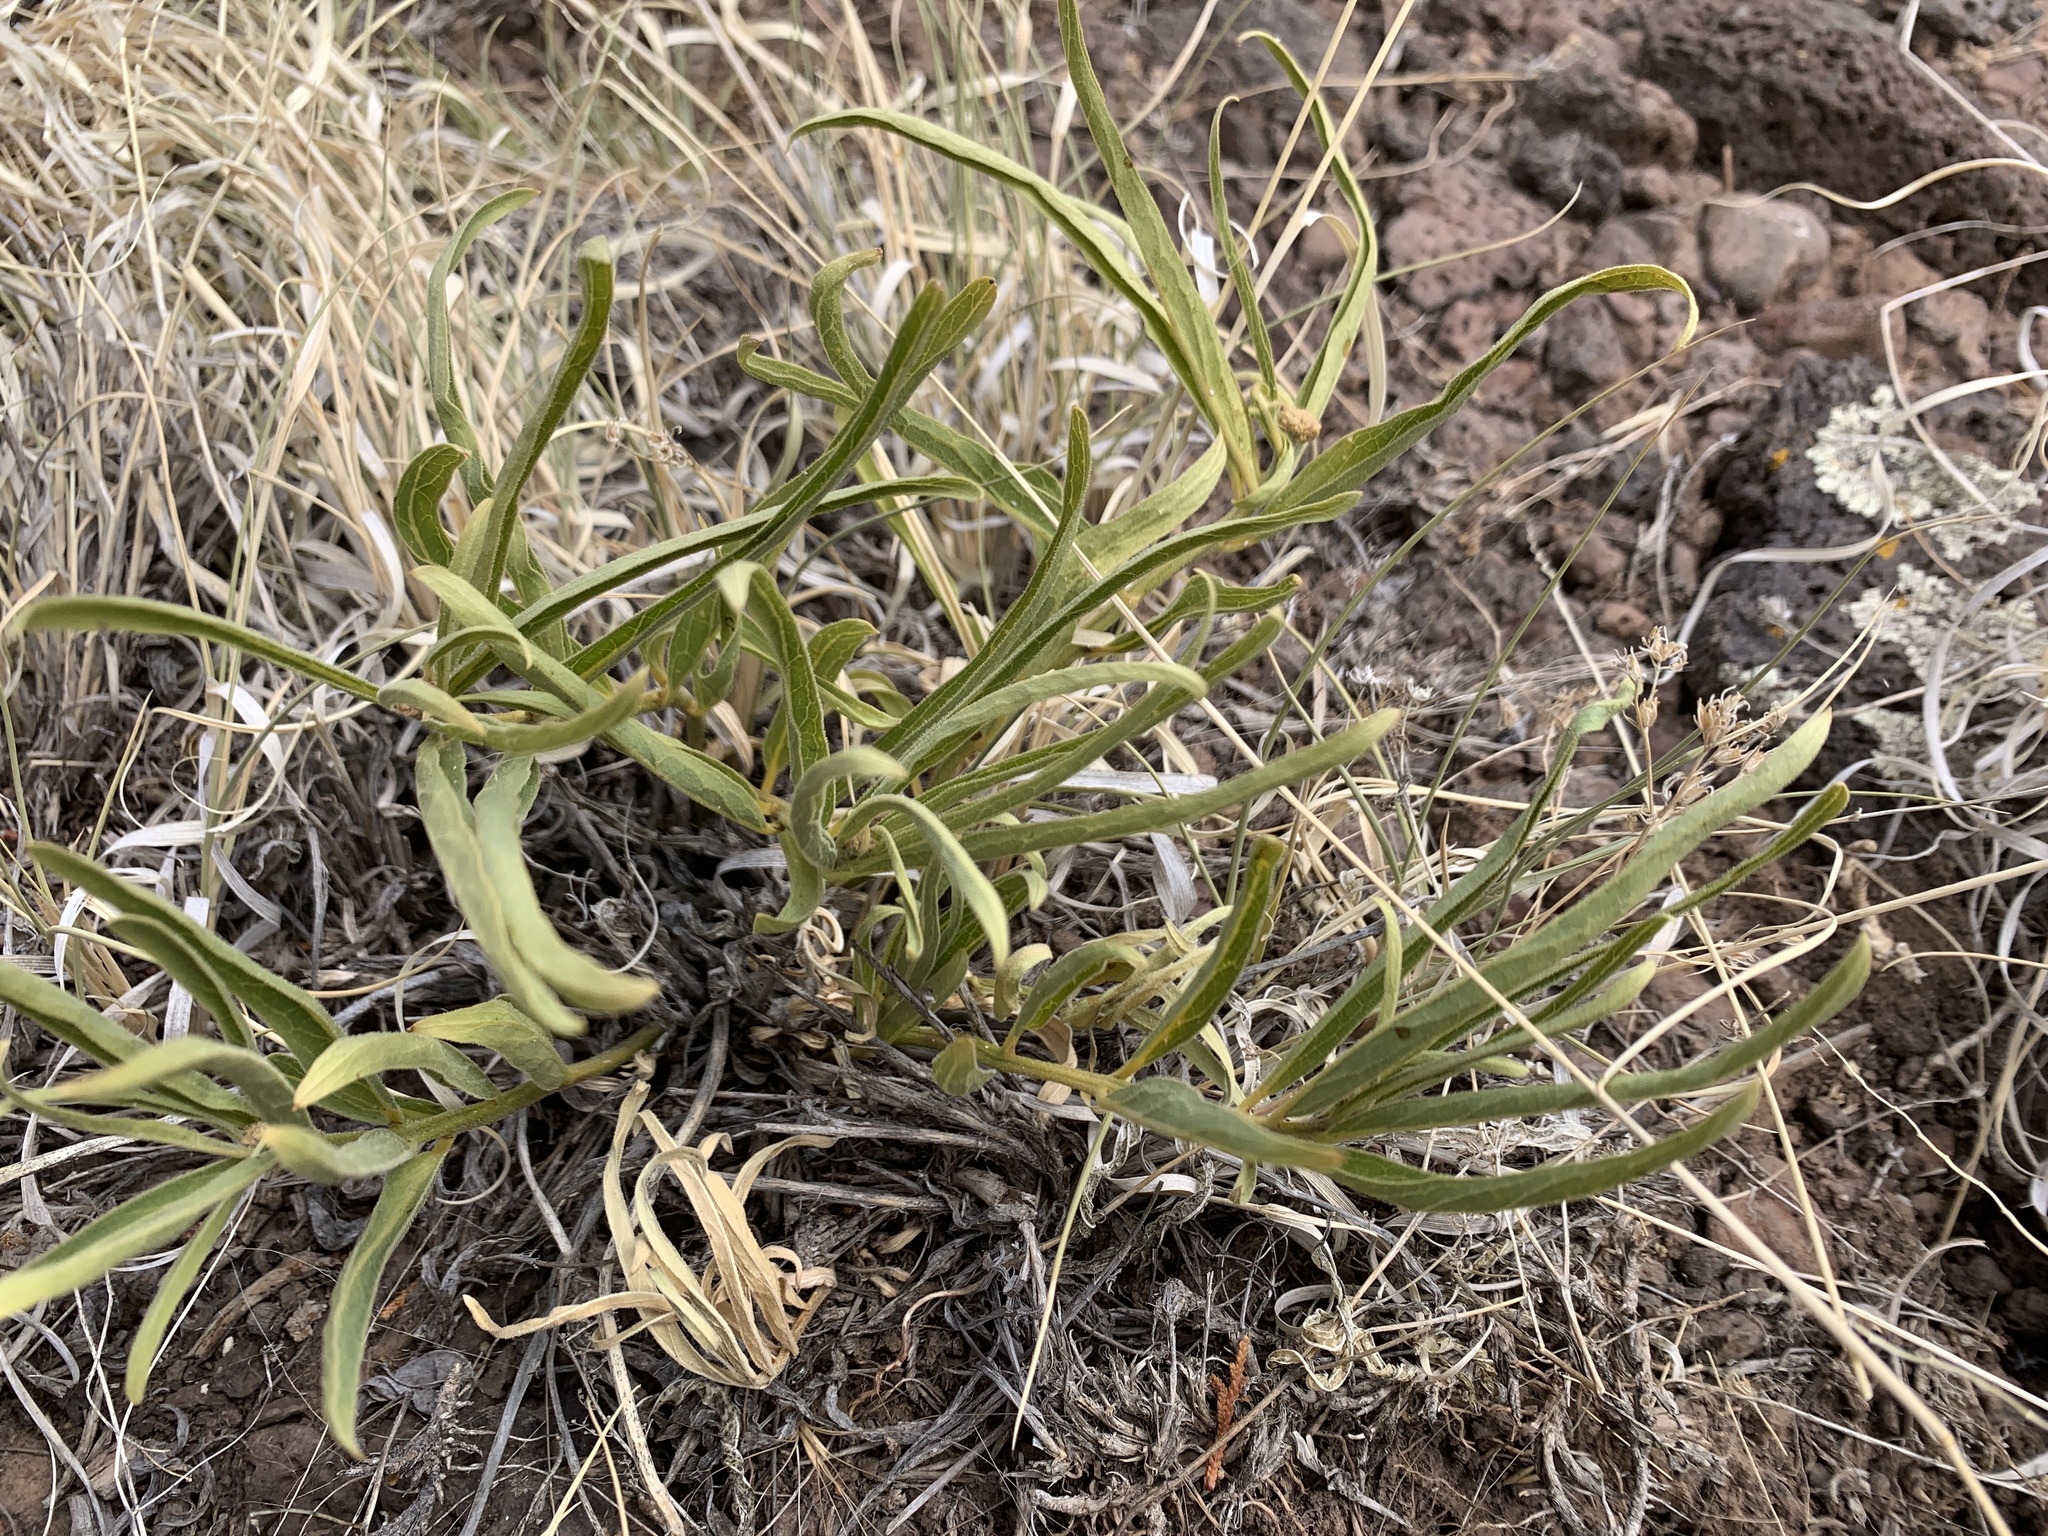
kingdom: Plantae
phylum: Tracheophyta
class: Magnoliopsida
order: Gentianales
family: Apocynaceae
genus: Asclepias
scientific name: Asclepias asperula
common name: Antelope horns
